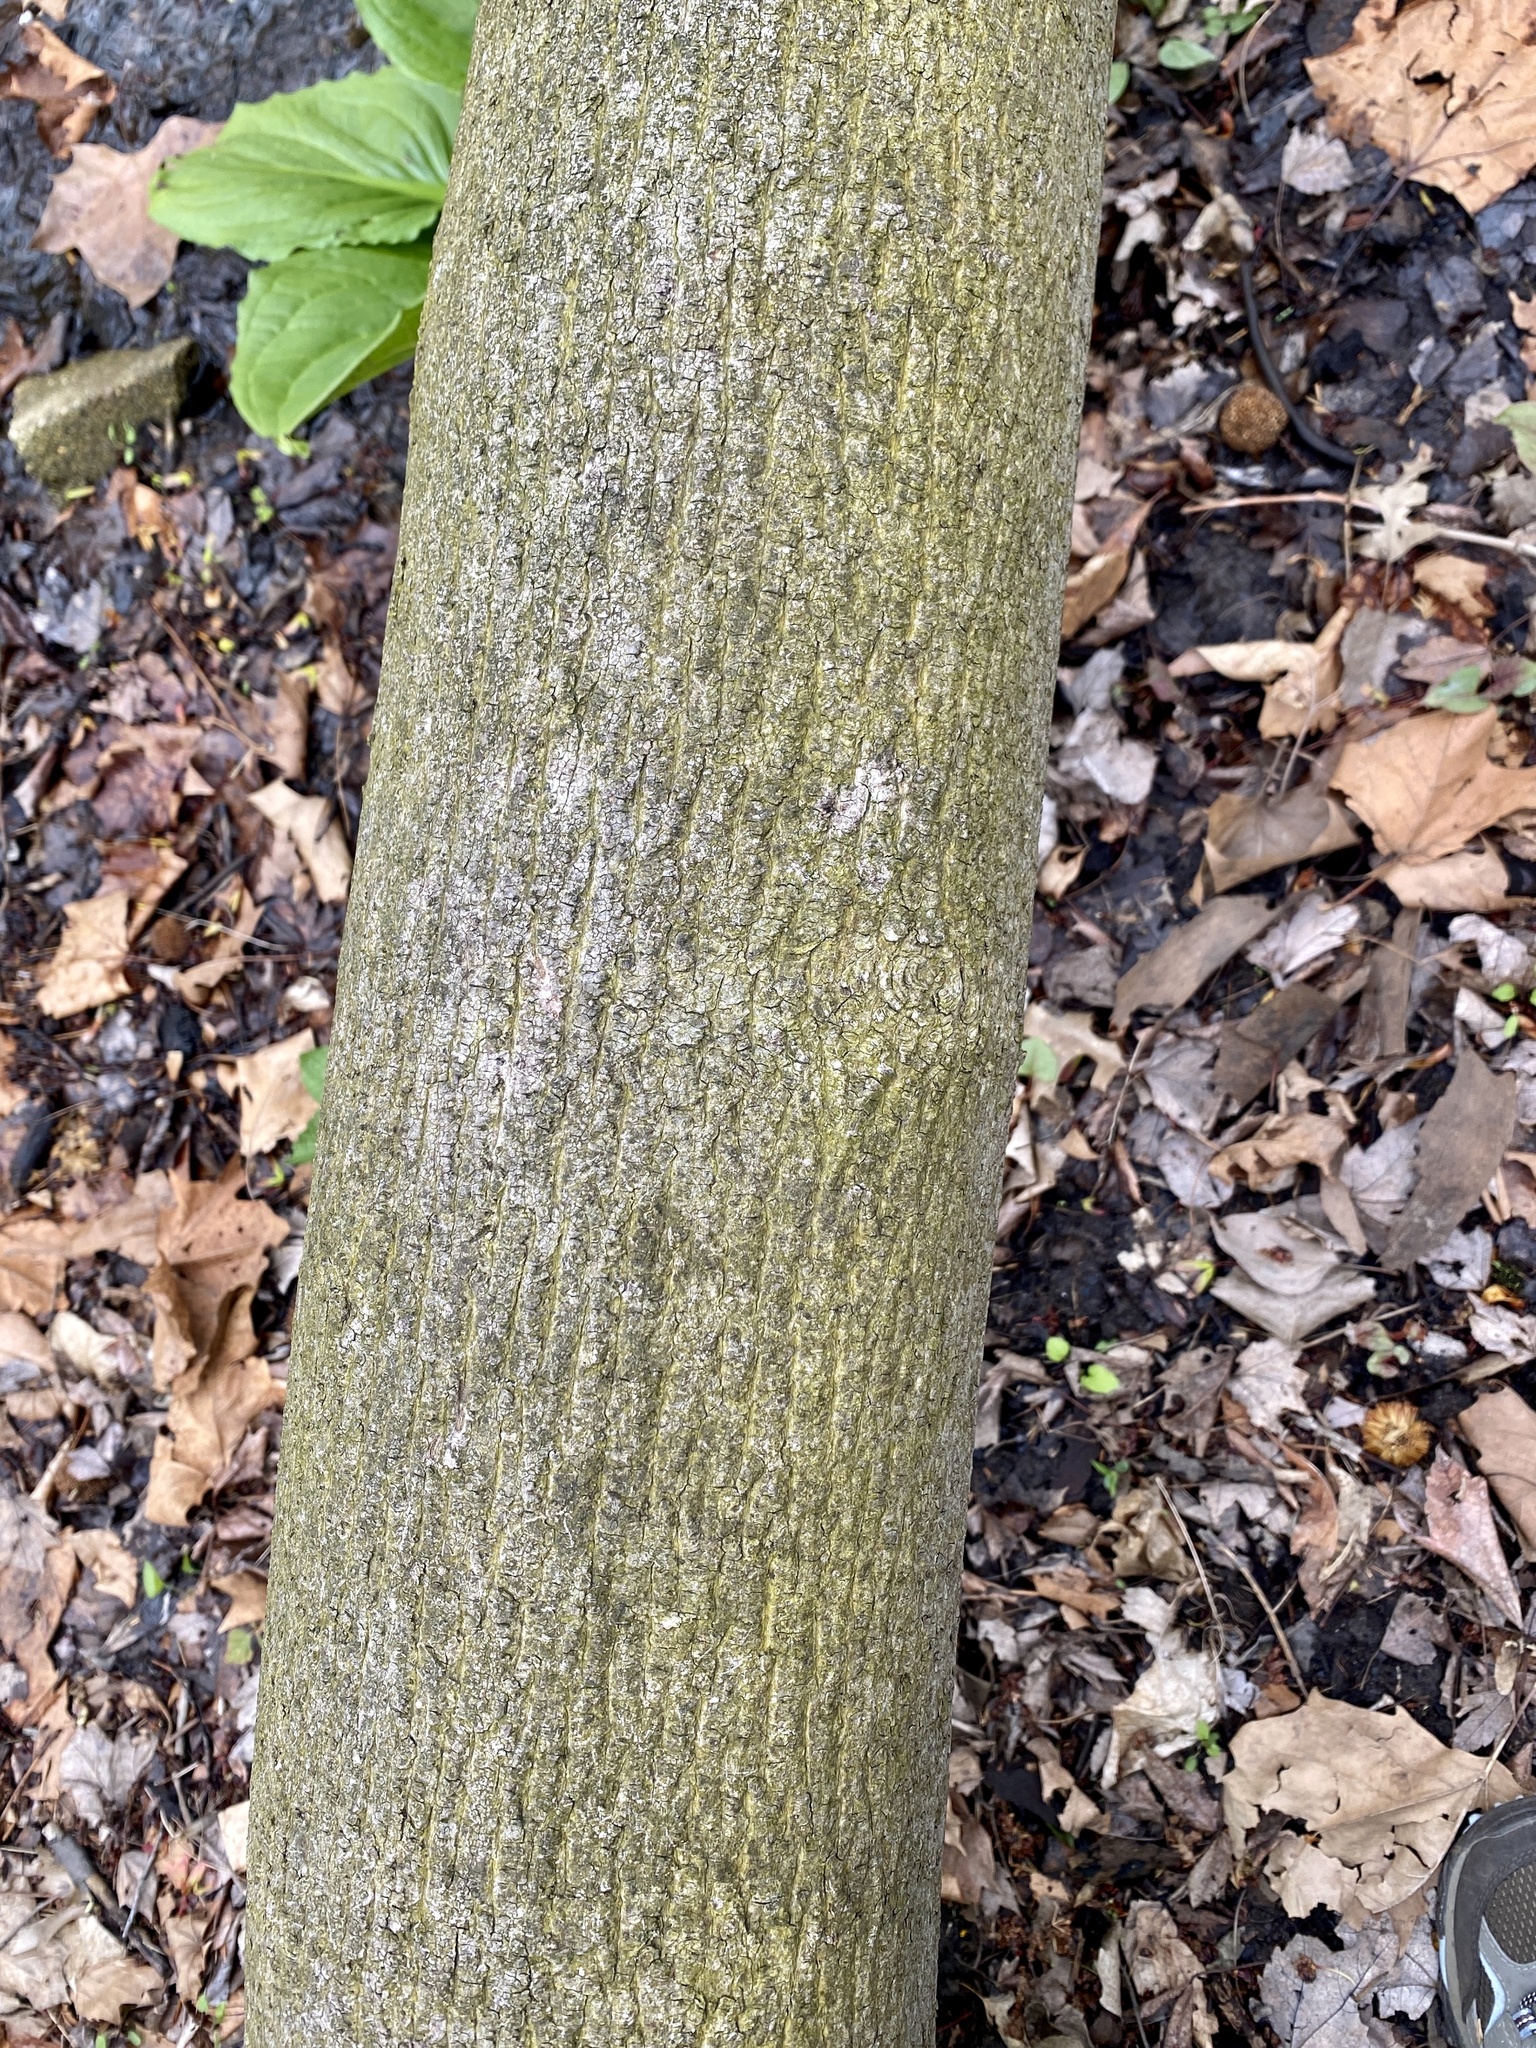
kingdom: Plantae
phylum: Tracheophyta
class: Magnoliopsida
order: Sapindales
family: Sapindaceae
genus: Acer
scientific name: Acer platanoides
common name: Norway maple
